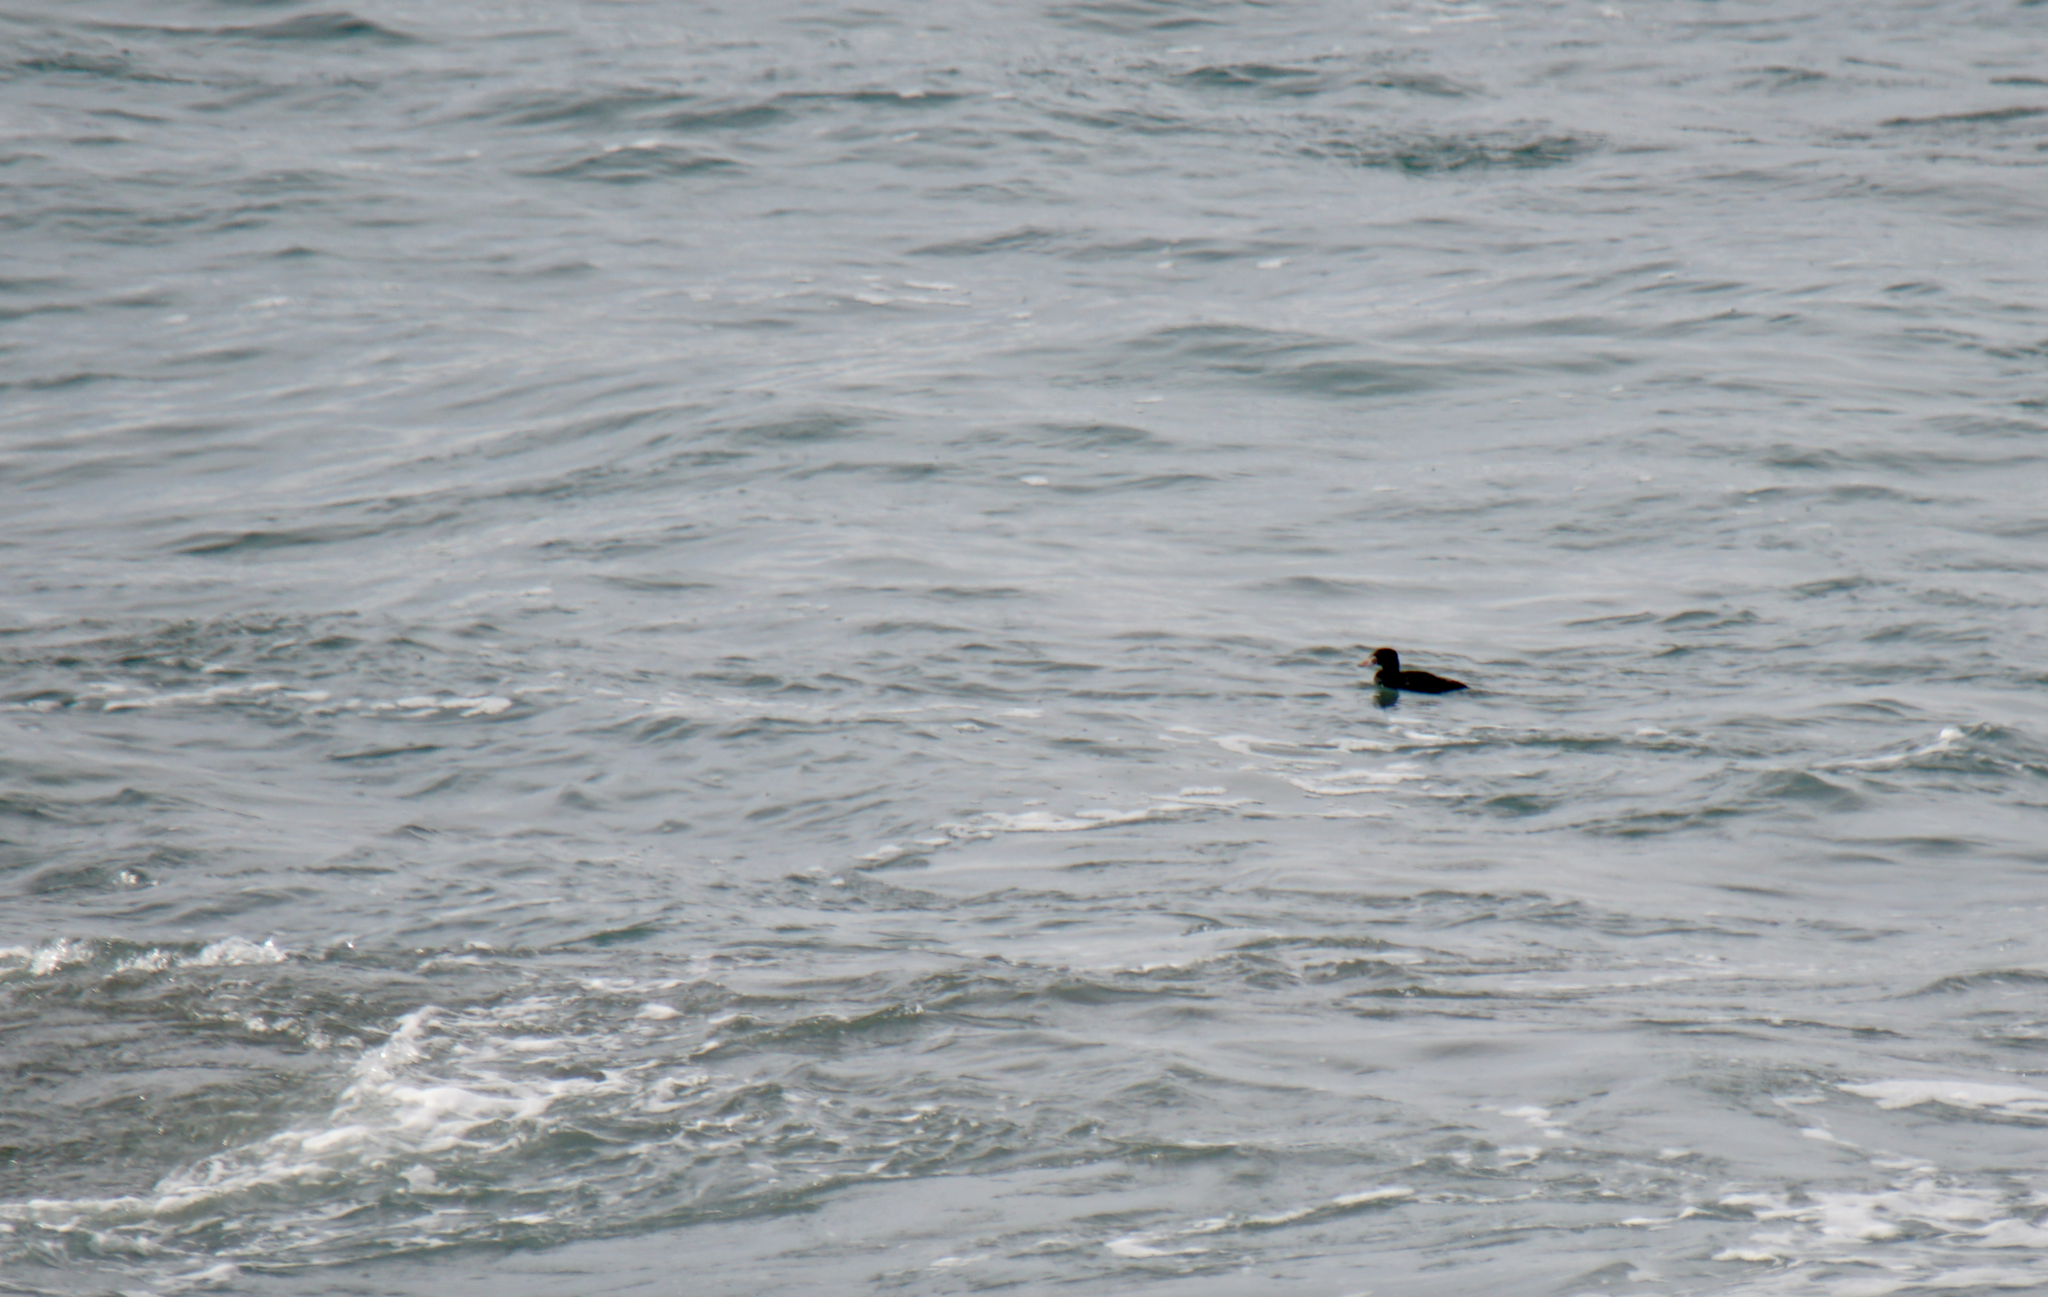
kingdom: Animalia
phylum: Chordata
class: Aves
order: Anseriformes
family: Anatidae
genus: Melanitta
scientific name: Melanitta perspicillata
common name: Surf scoter
